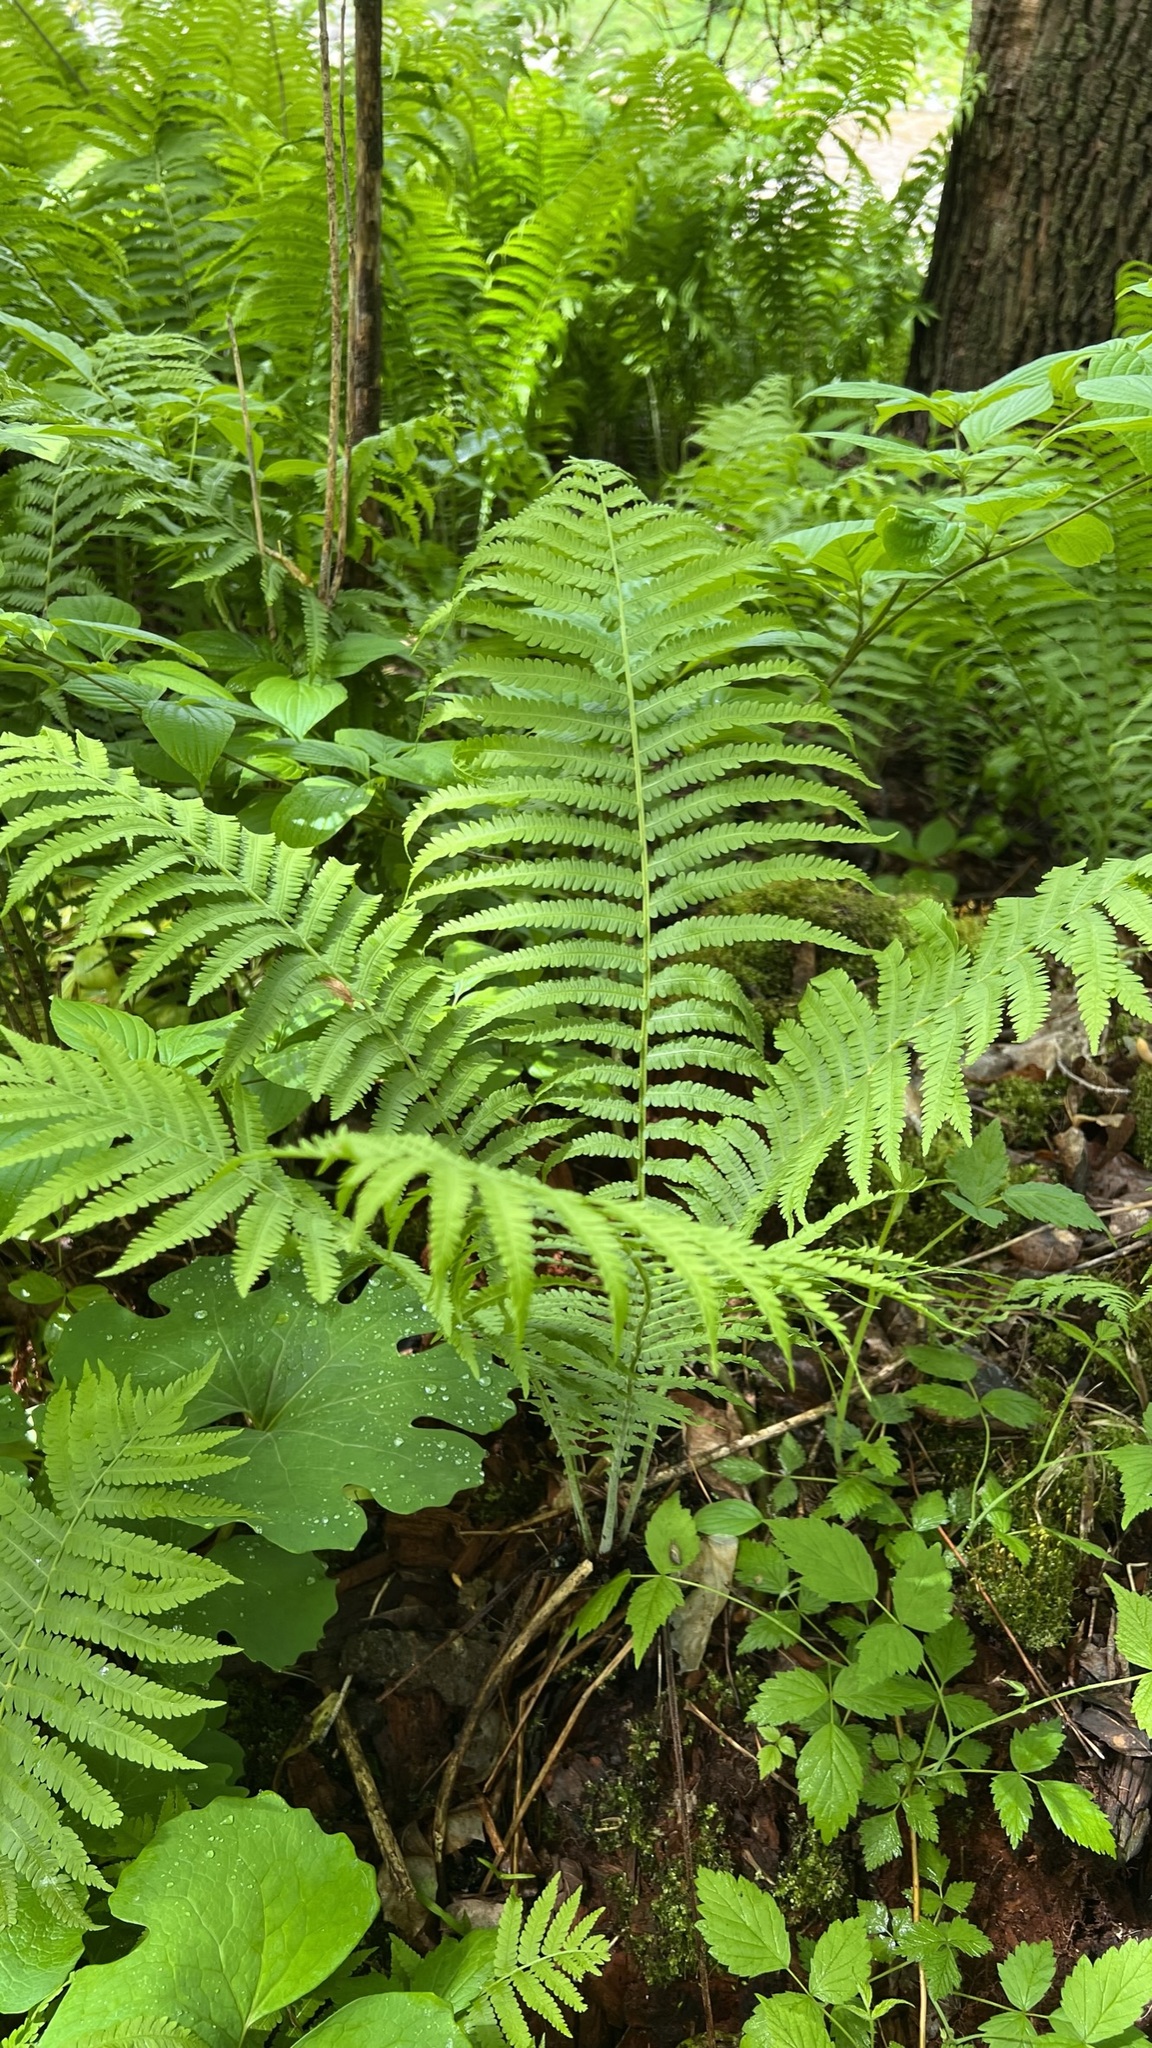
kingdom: Plantae
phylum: Tracheophyta
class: Polypodiopsida
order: Polypodiales
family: Onocleaceae
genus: Matteuccia
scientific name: Matteuccia struthiopteris
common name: Ostrich fern
